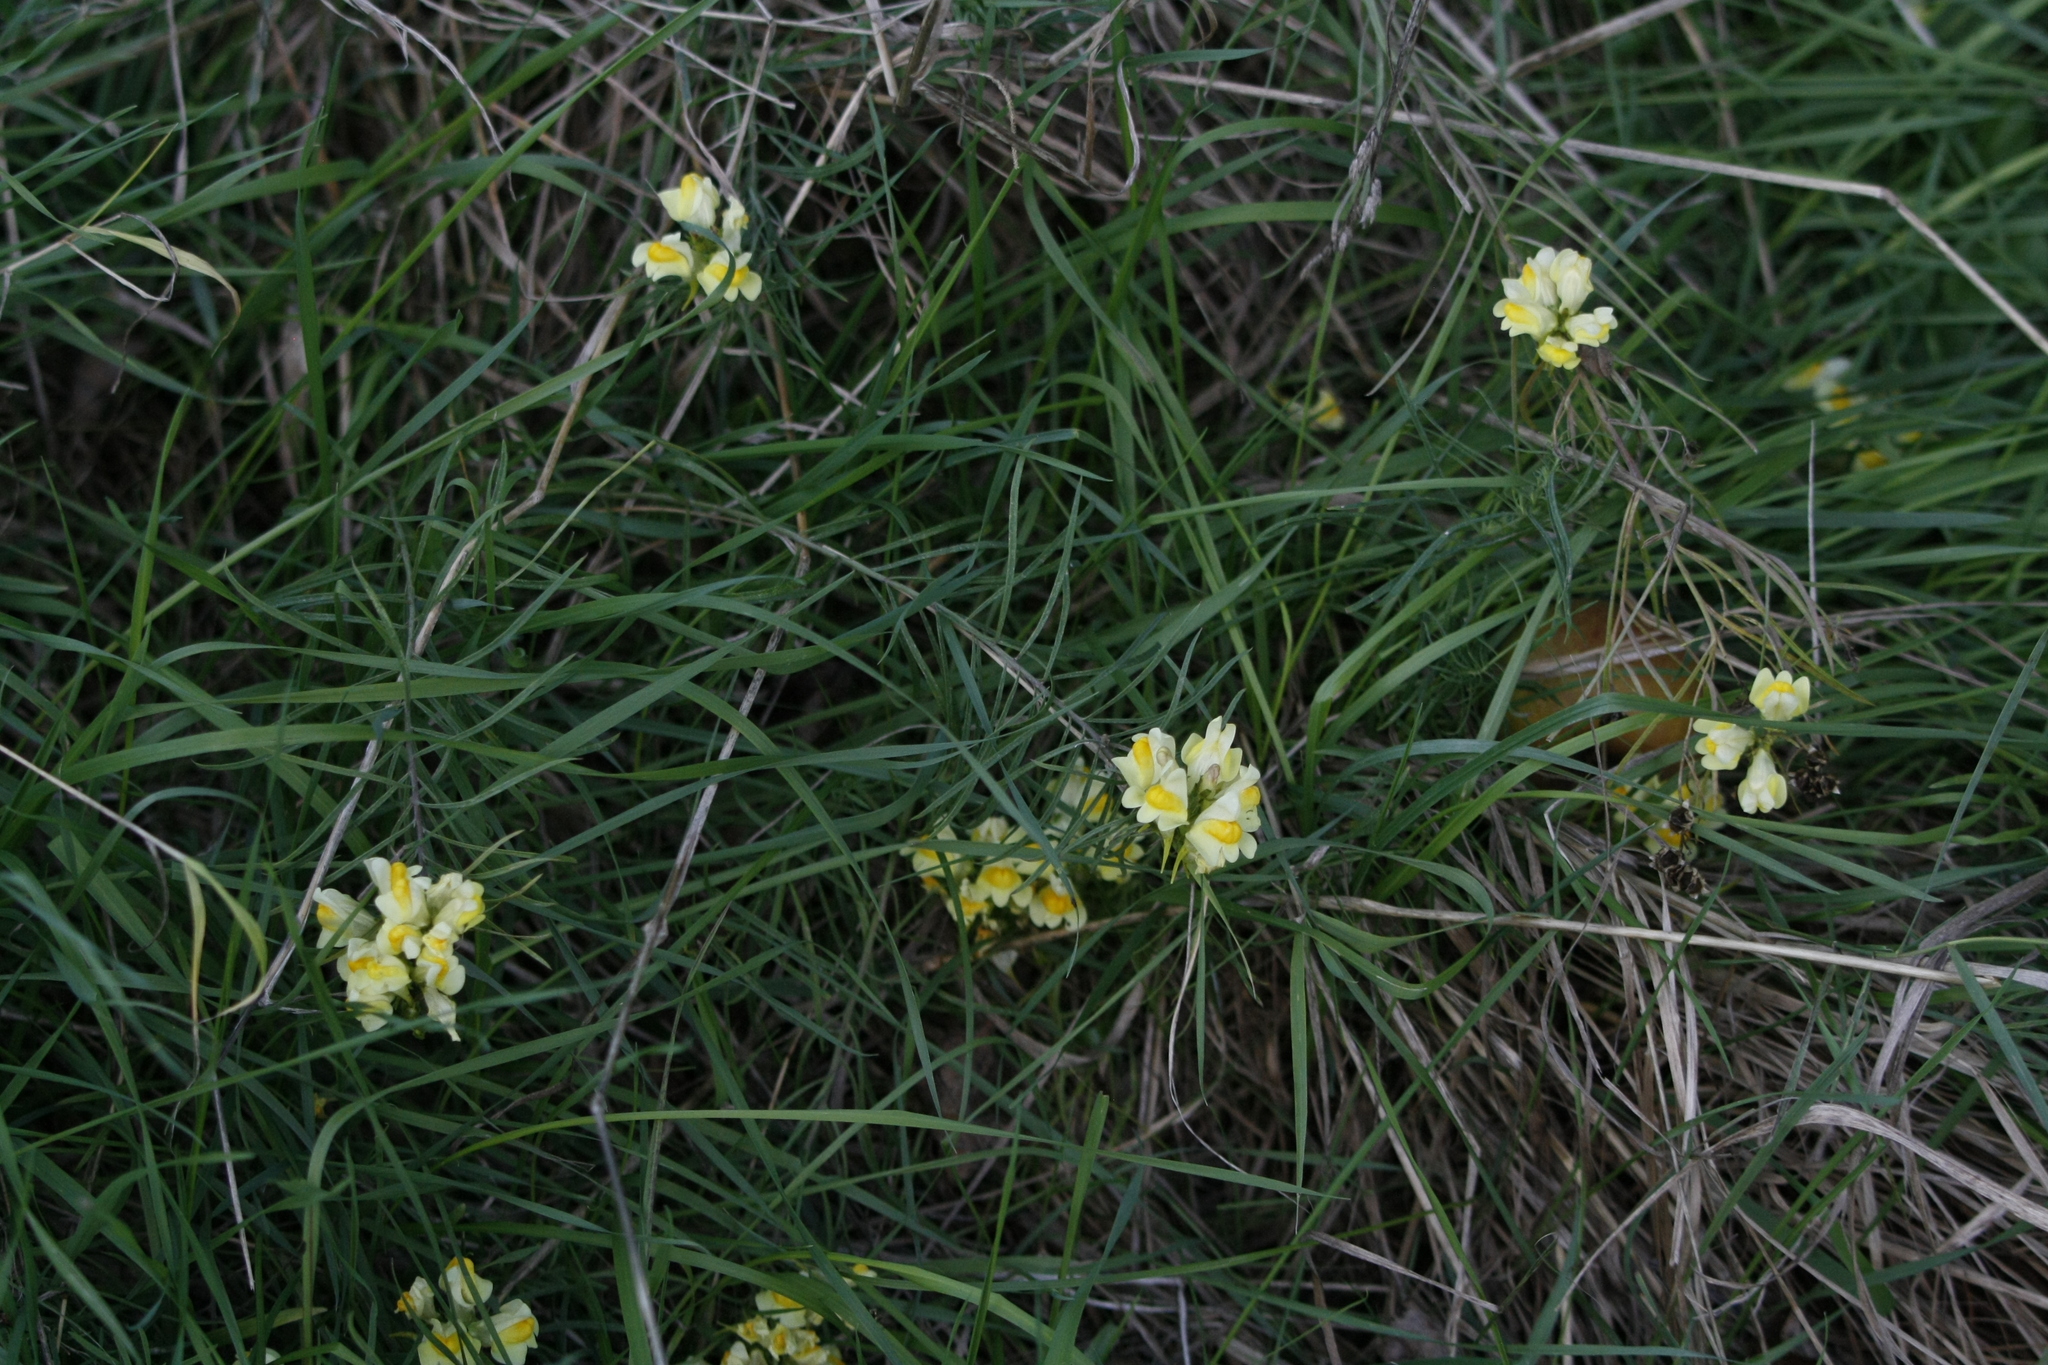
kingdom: Plantae
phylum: Tracheophyta
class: Magnoliopsida
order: Lamiales
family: Plantaginaceae
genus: Linaria
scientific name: Linaria vulgaris
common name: Butter and eggs
